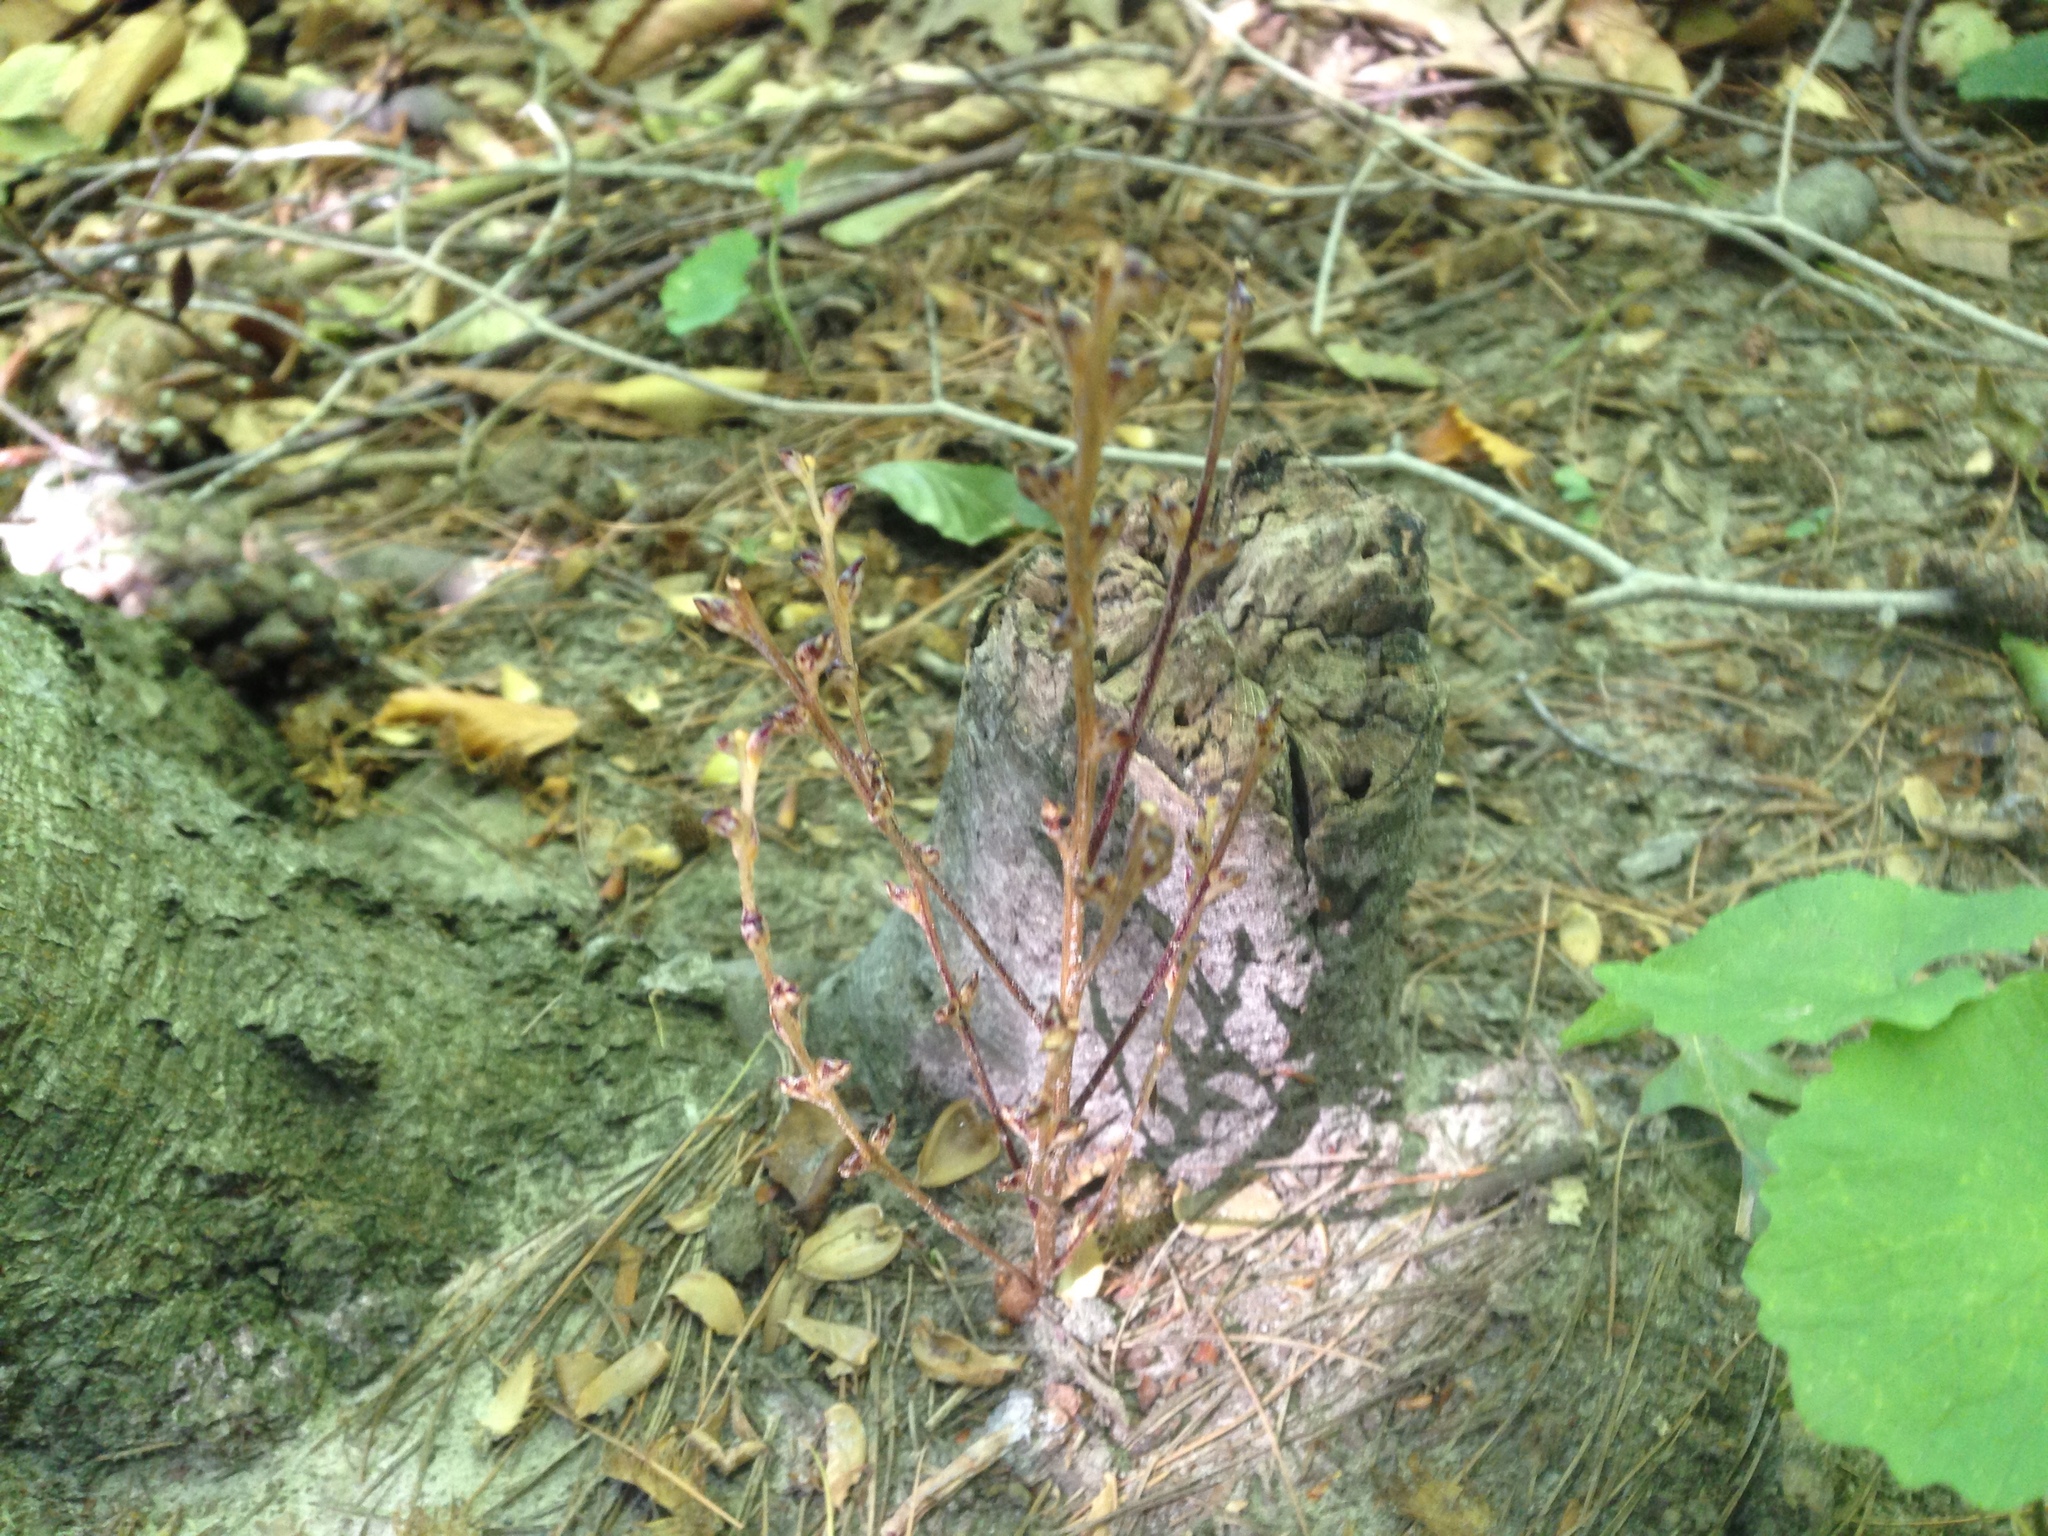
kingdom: Plantae
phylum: Tracheophyta
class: Magnoliopsida
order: Lamiales
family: Orobanchaceae
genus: Epifagus
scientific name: Epifagus virginiana
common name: Beechdrops
